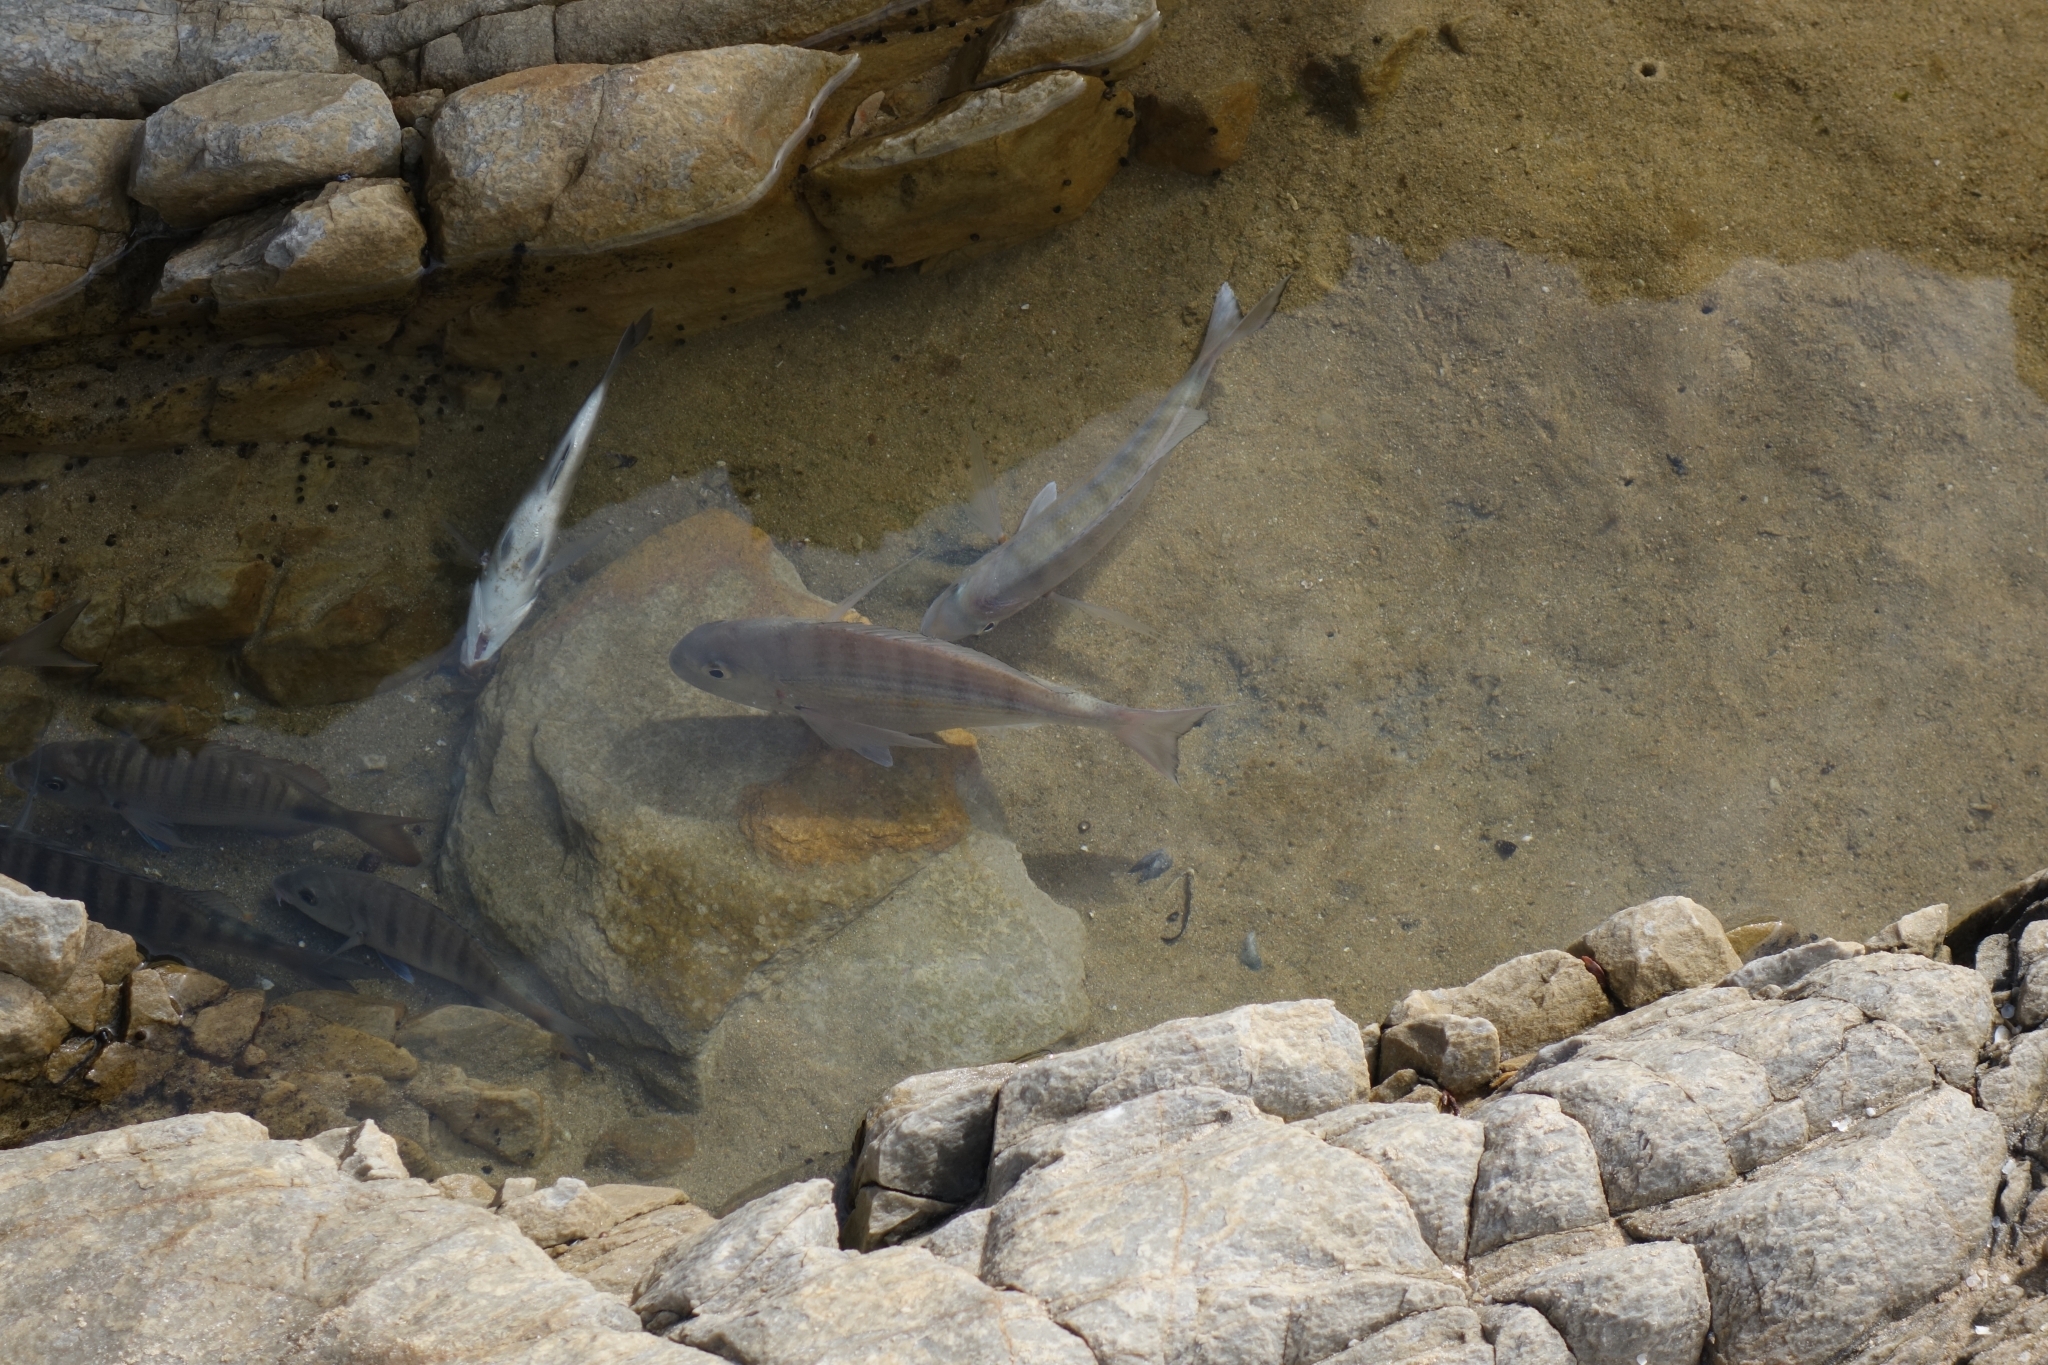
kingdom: Animalia
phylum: Chordata
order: Perciformes
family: Sparidae
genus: Lithognathus
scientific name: Lithognathus mormyrus
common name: Sand steenbras
